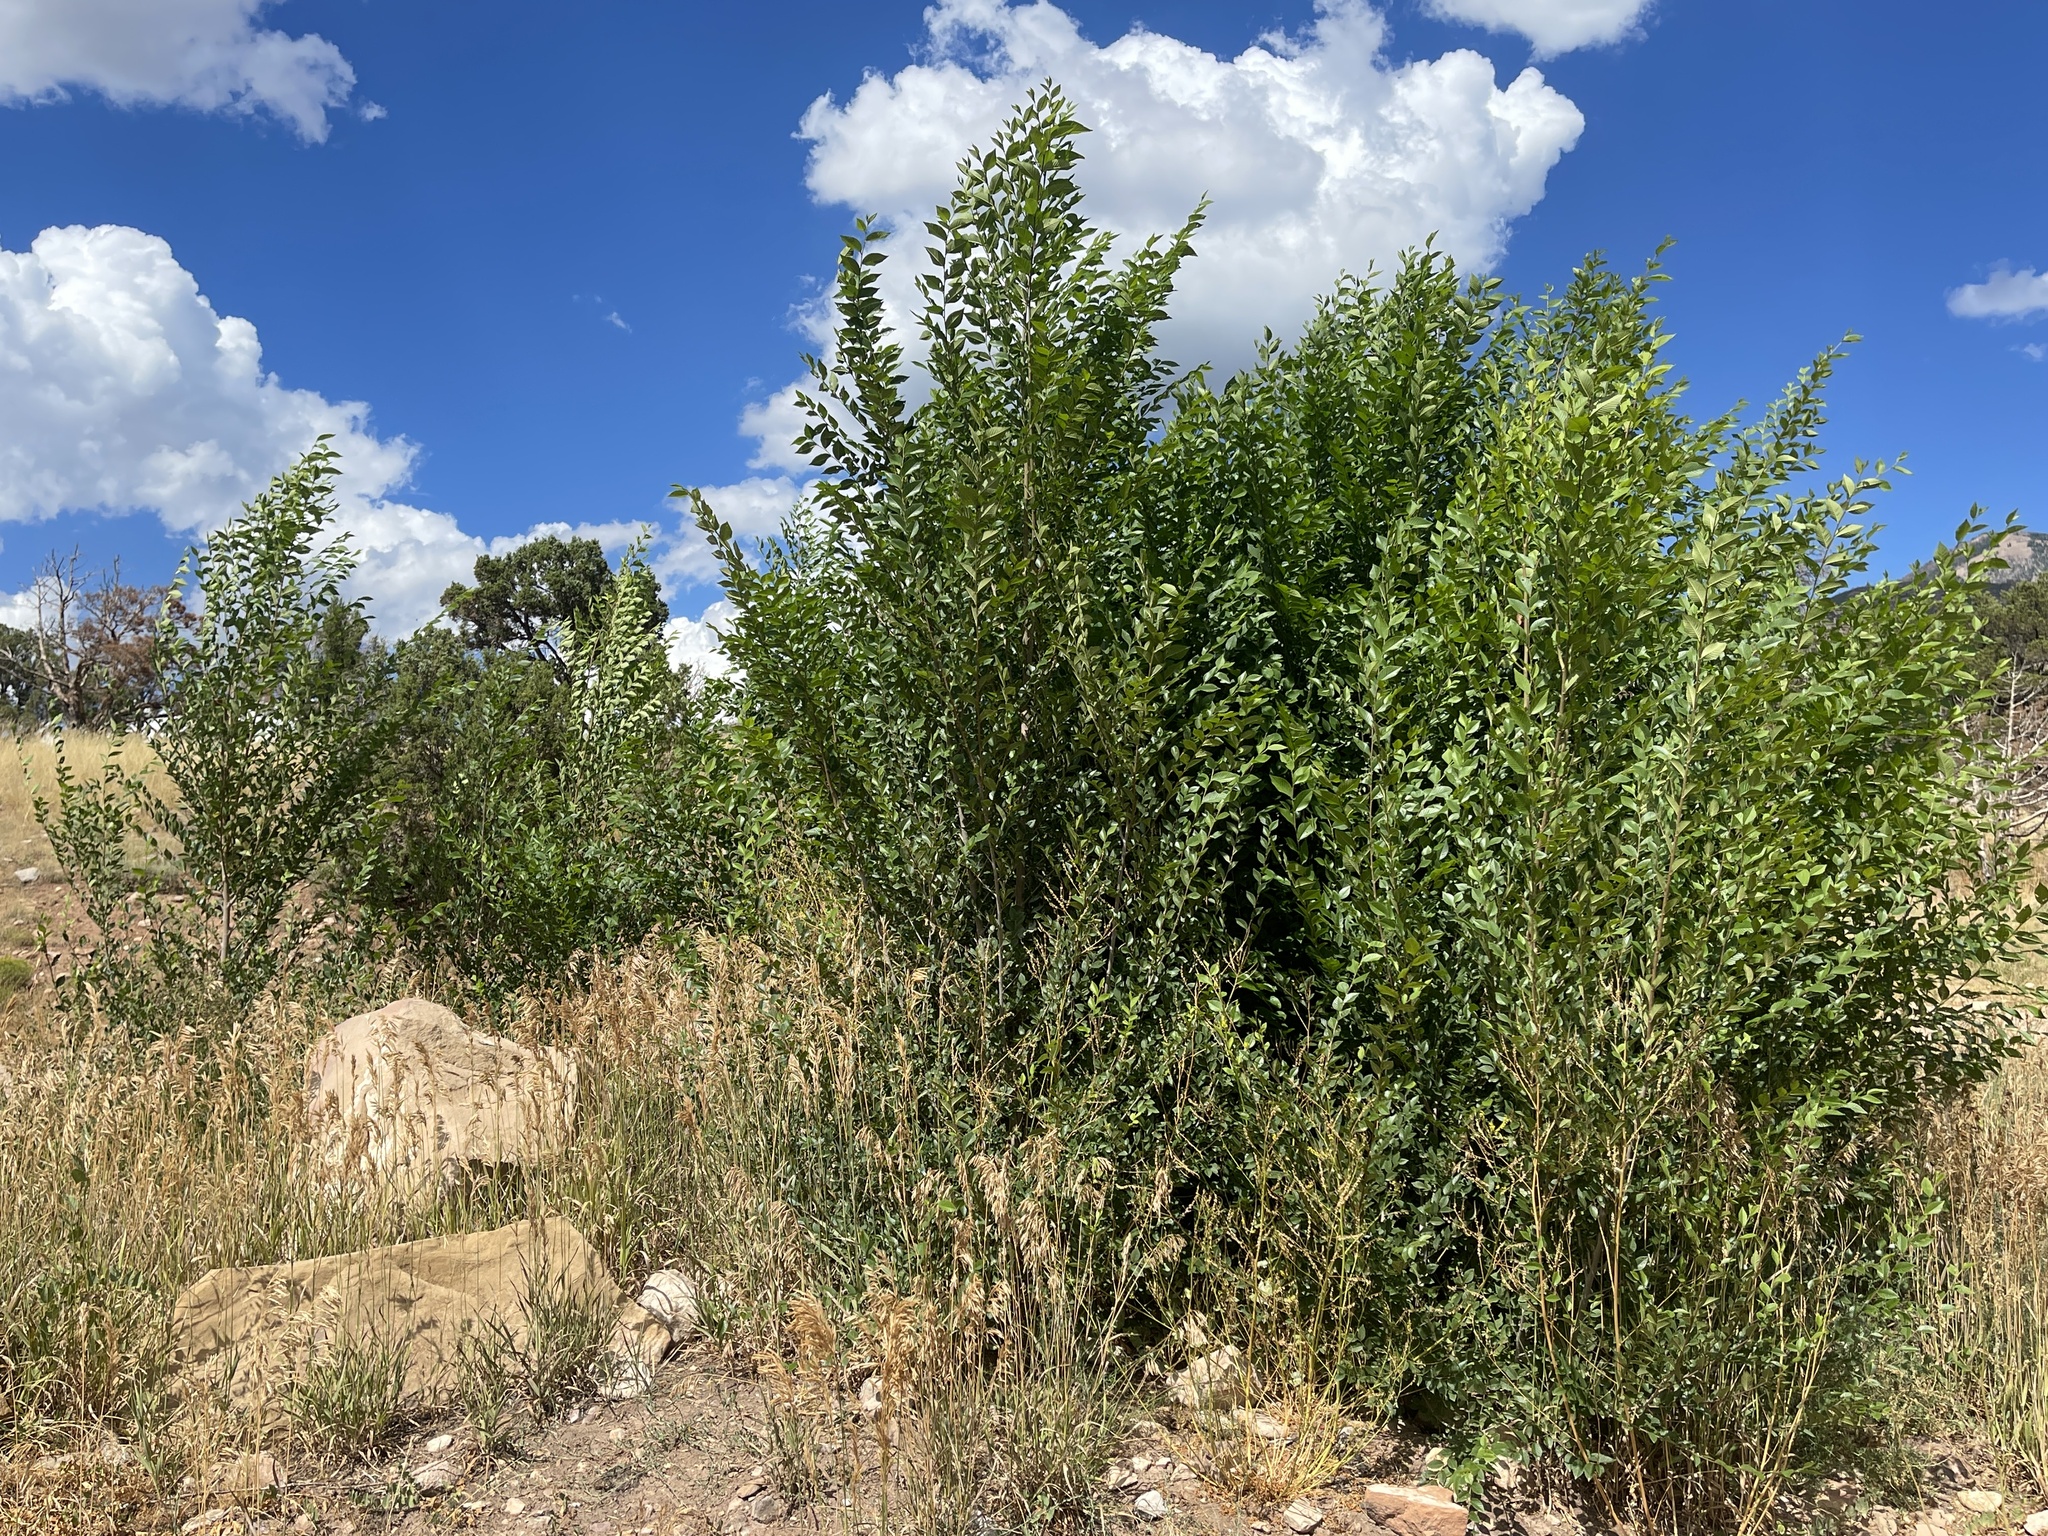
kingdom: Plantae
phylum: Tracheophyta
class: Magnoliopsida
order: Rosales
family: Ulmaceae
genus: Ulmus
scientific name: Ulmus pumila
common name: Siberian elm
